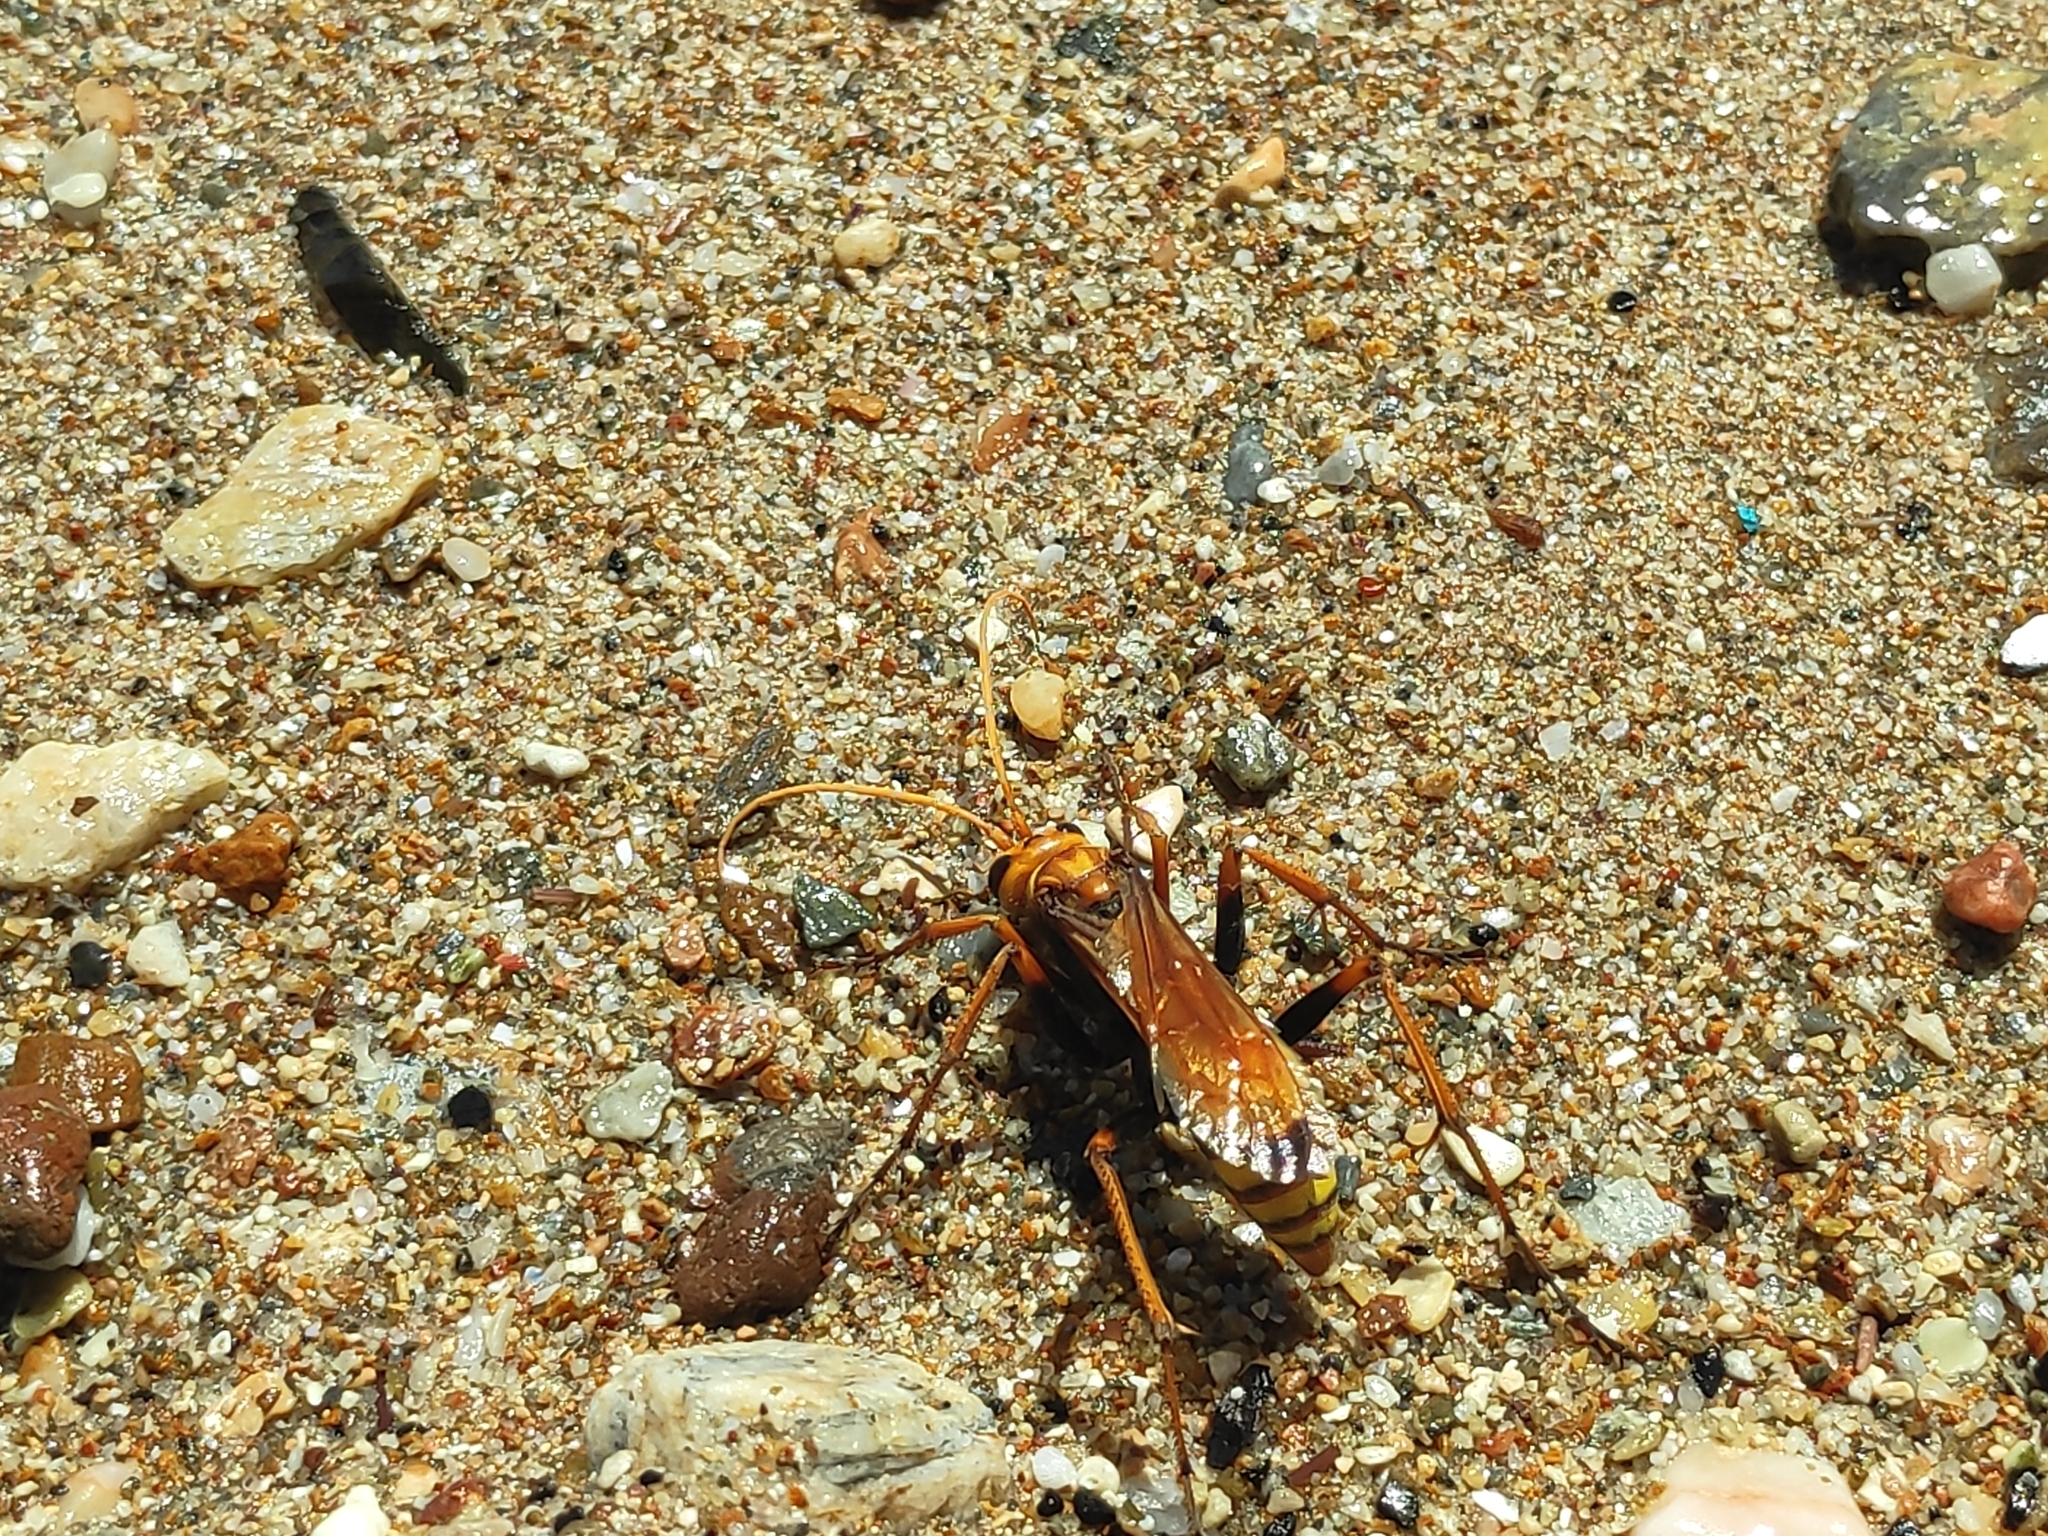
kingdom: Animalia
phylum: Arthropoda
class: Insecta
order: Hymenoptera
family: Pompilidae
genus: Cryptocheilus
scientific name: Cryptocheilus alternatus
